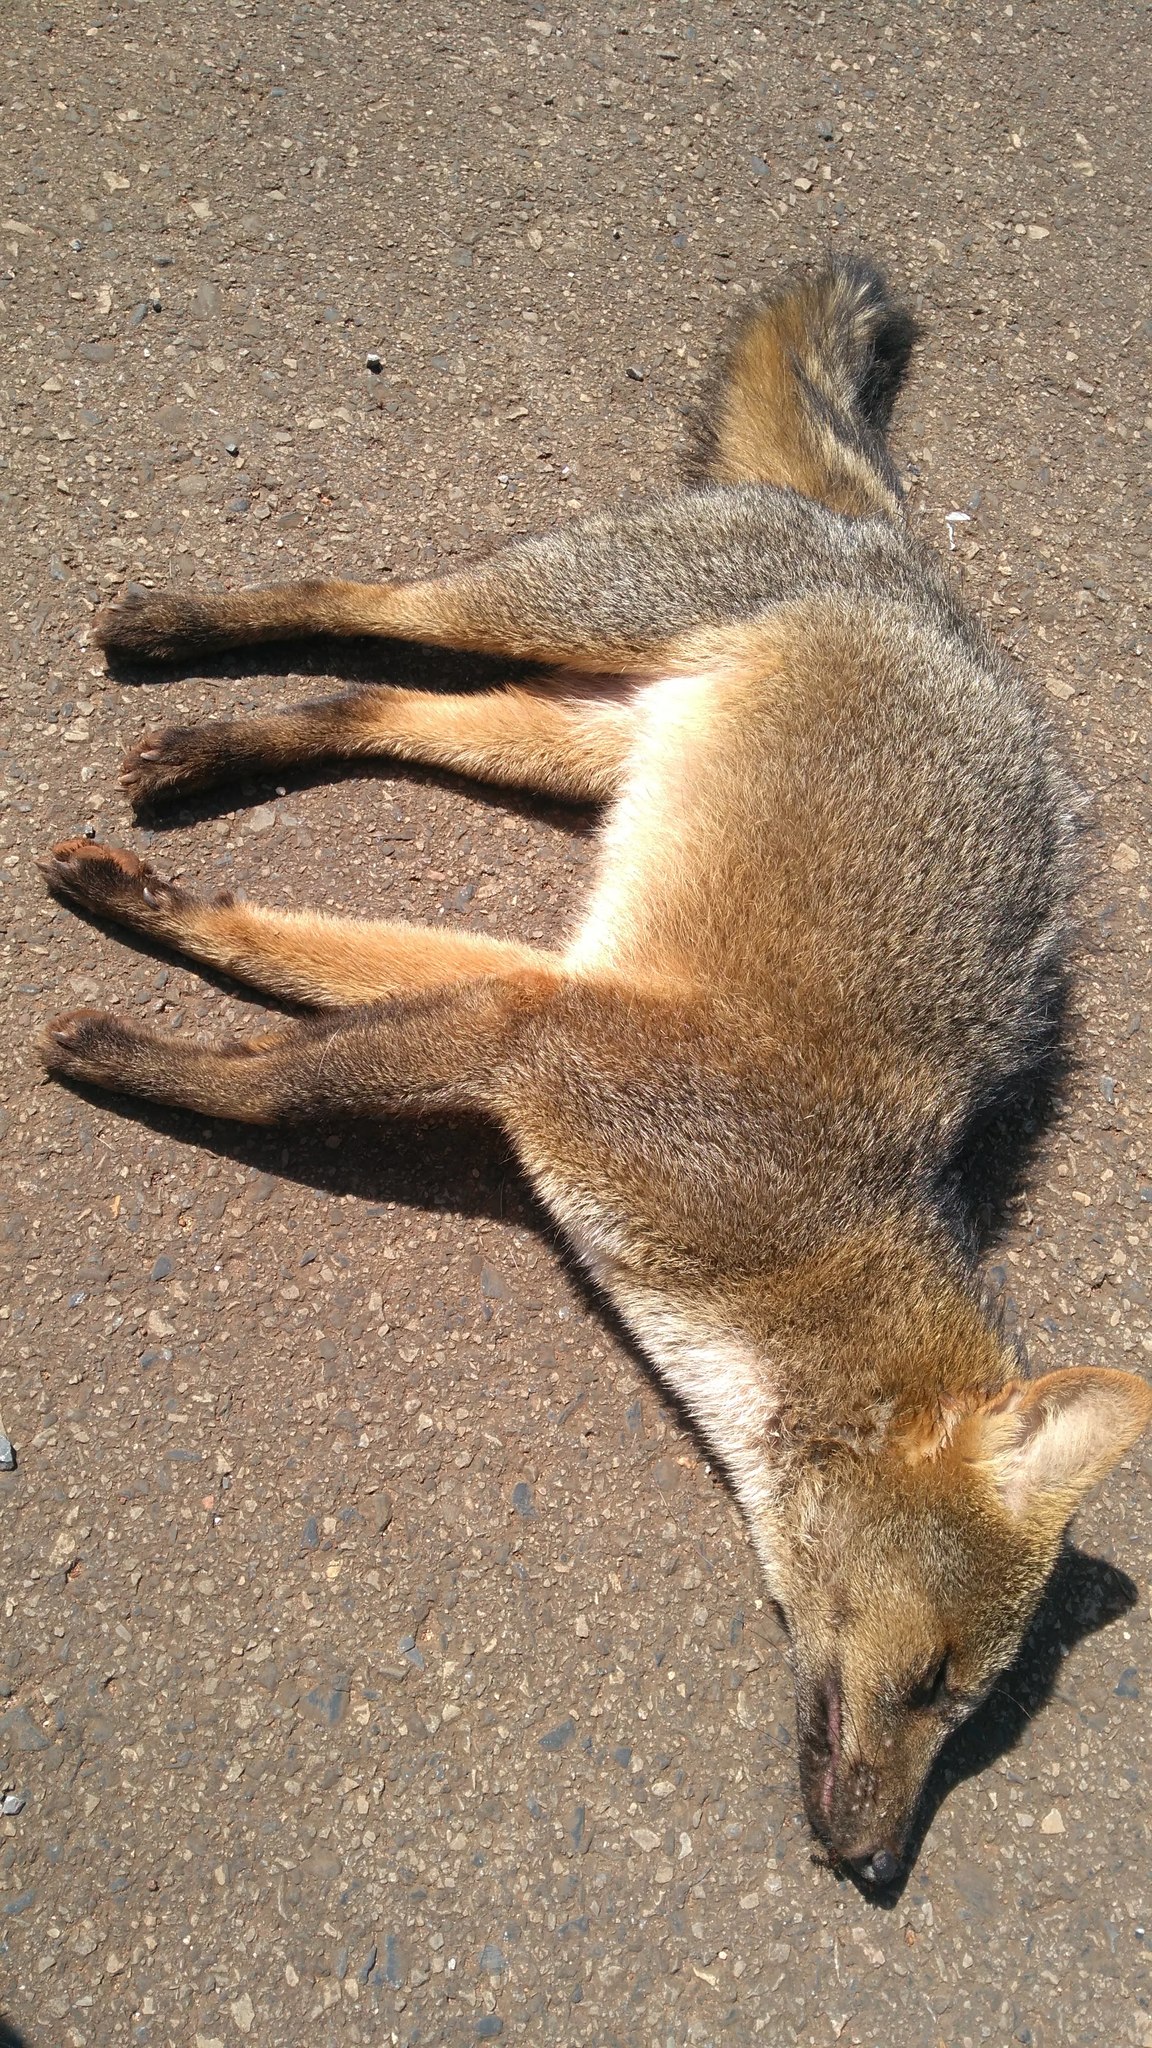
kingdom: Animalia
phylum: Chordata
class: Mammalia
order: Carnivora
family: Canidae
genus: Cerdocyon
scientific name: Cerdocyon thous
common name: Crab-eating fox
